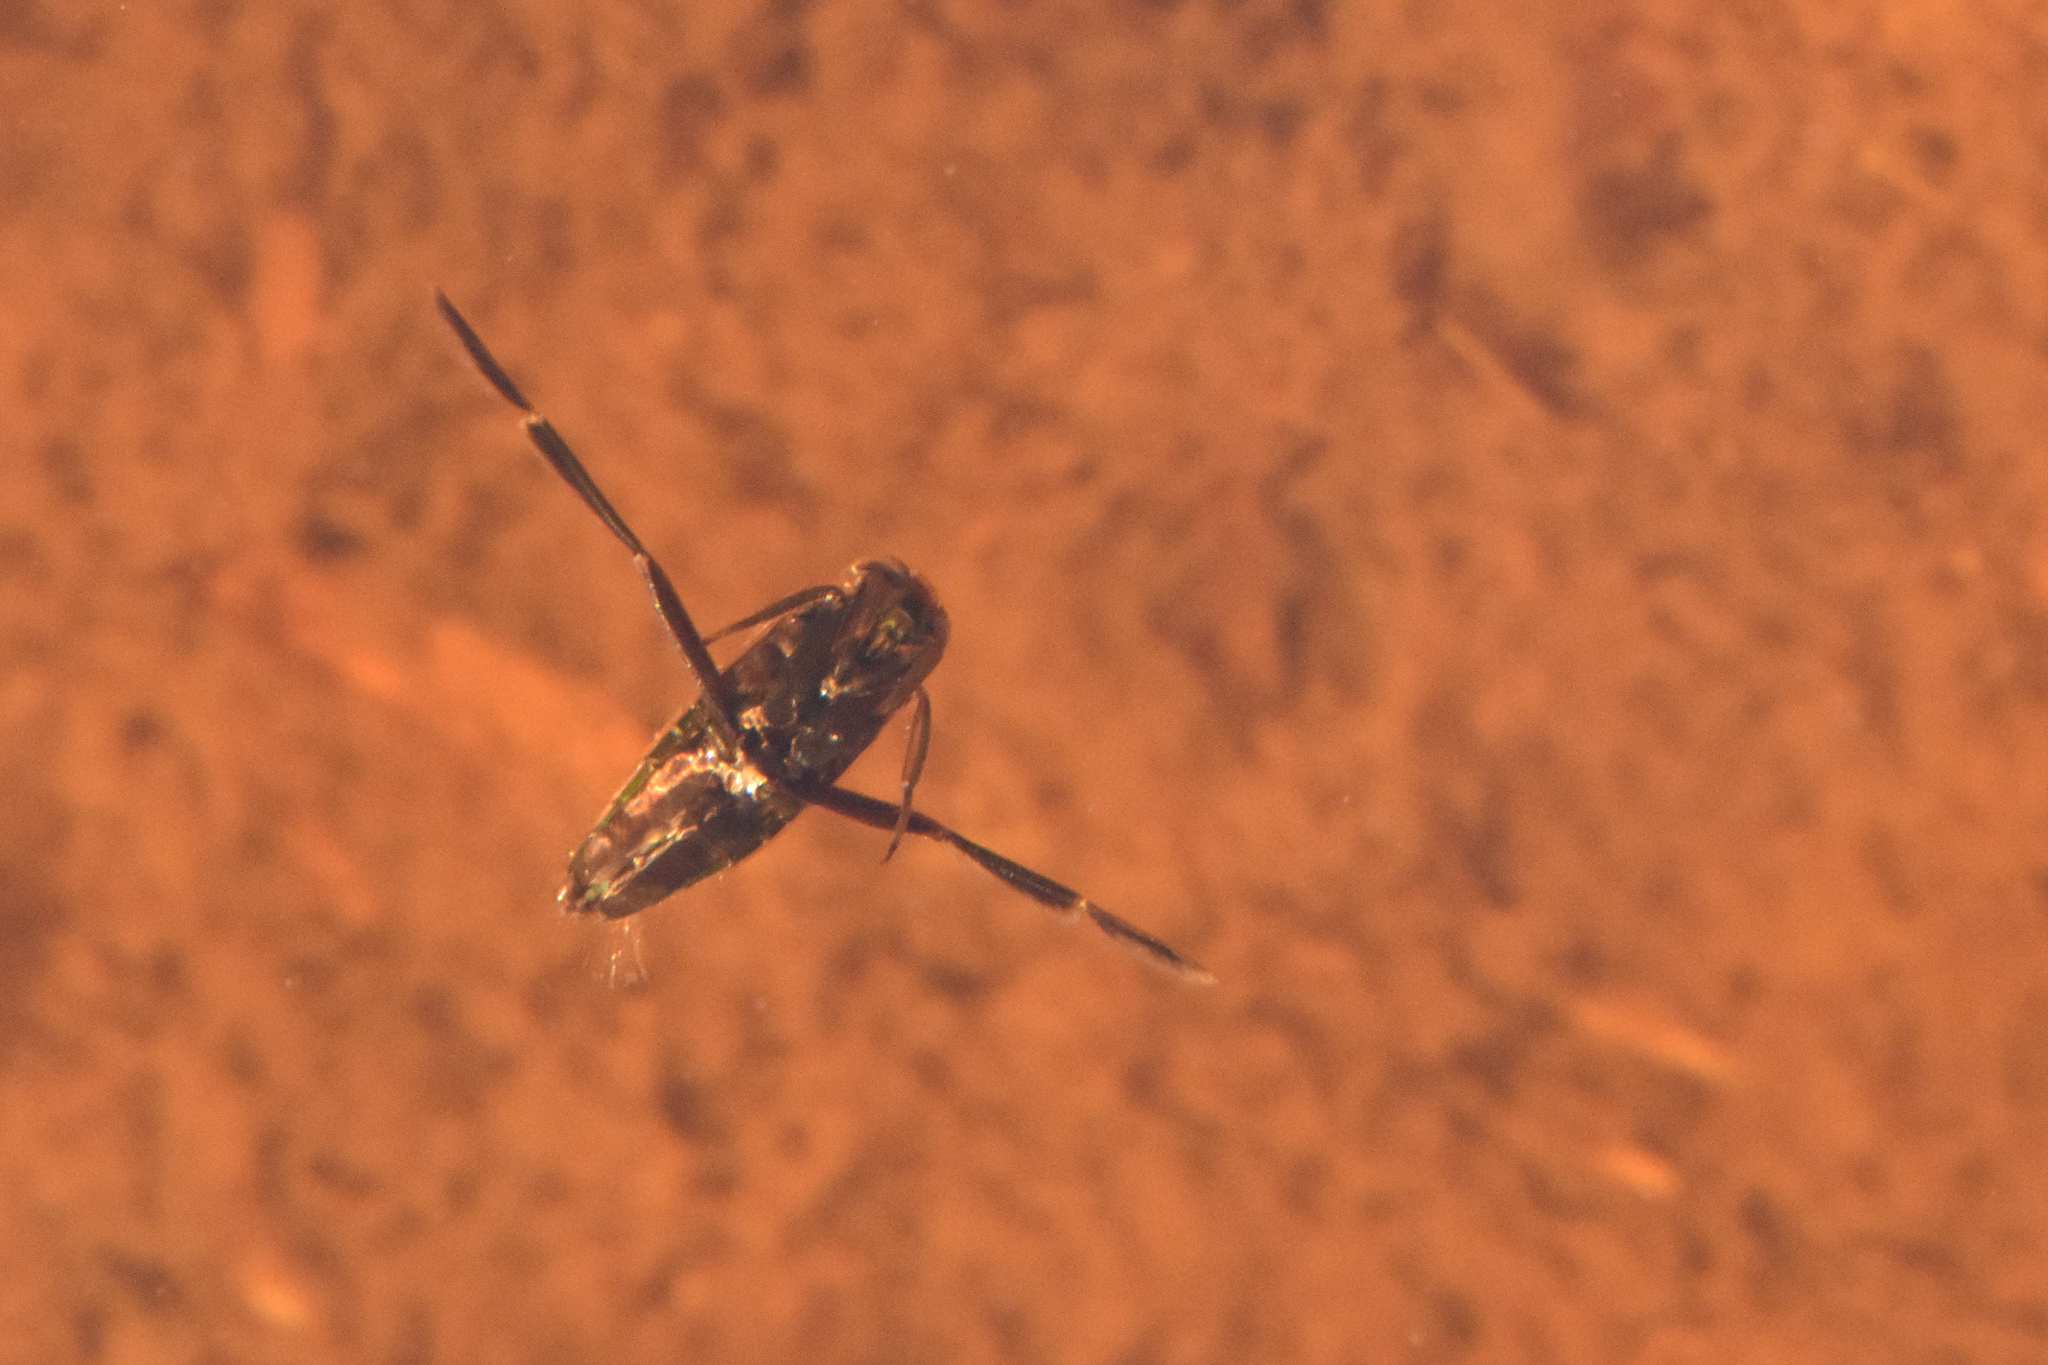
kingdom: Animalia
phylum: Arthropoda
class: Insecta
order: Hemiptera
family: Notonectidae
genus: Notonecta
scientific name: Notonecta
